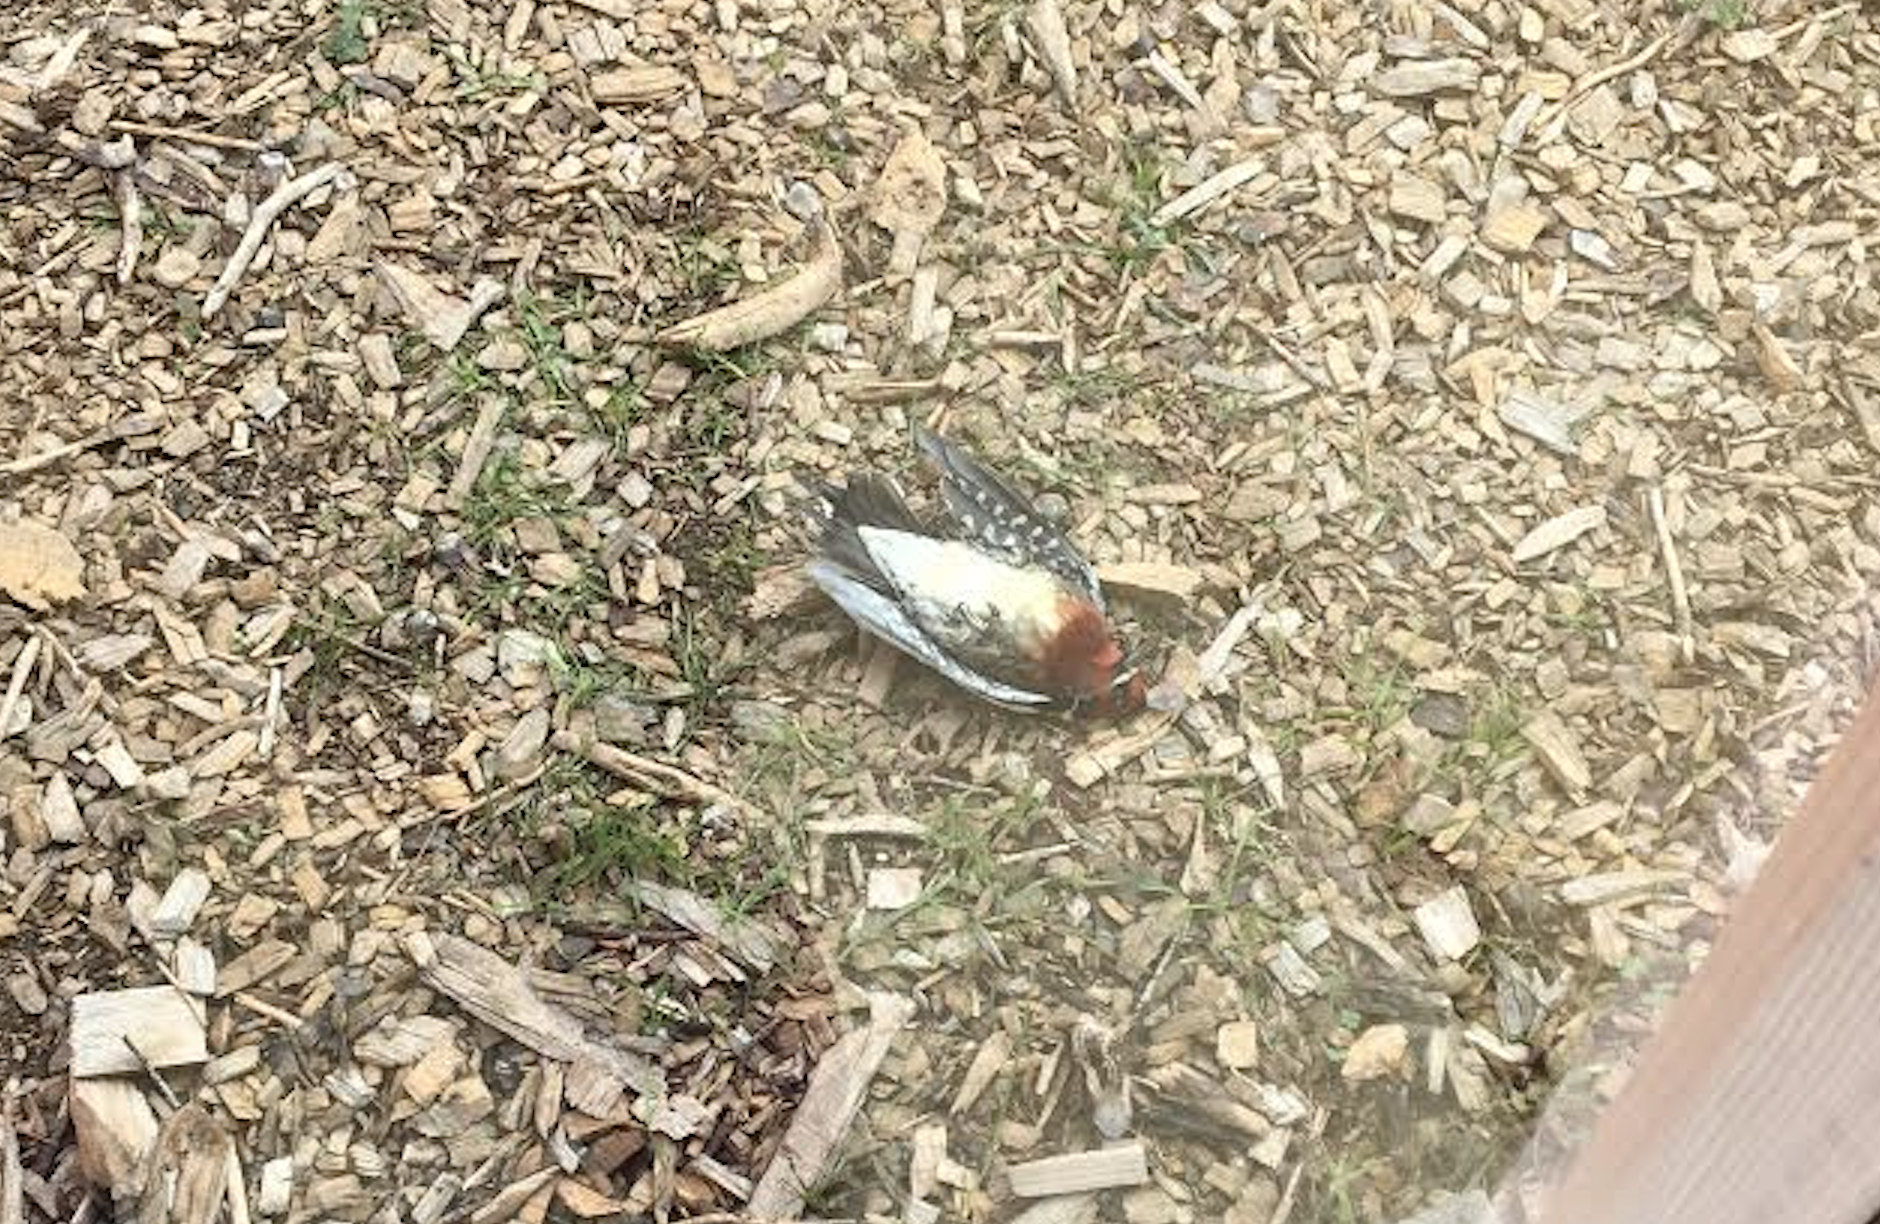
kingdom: Animalia
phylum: Chordata
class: Aves
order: Piciformes
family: Picidae
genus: Sphyrapicus
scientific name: Sphyrapicus ruber
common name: Red-breasted sapsucker
